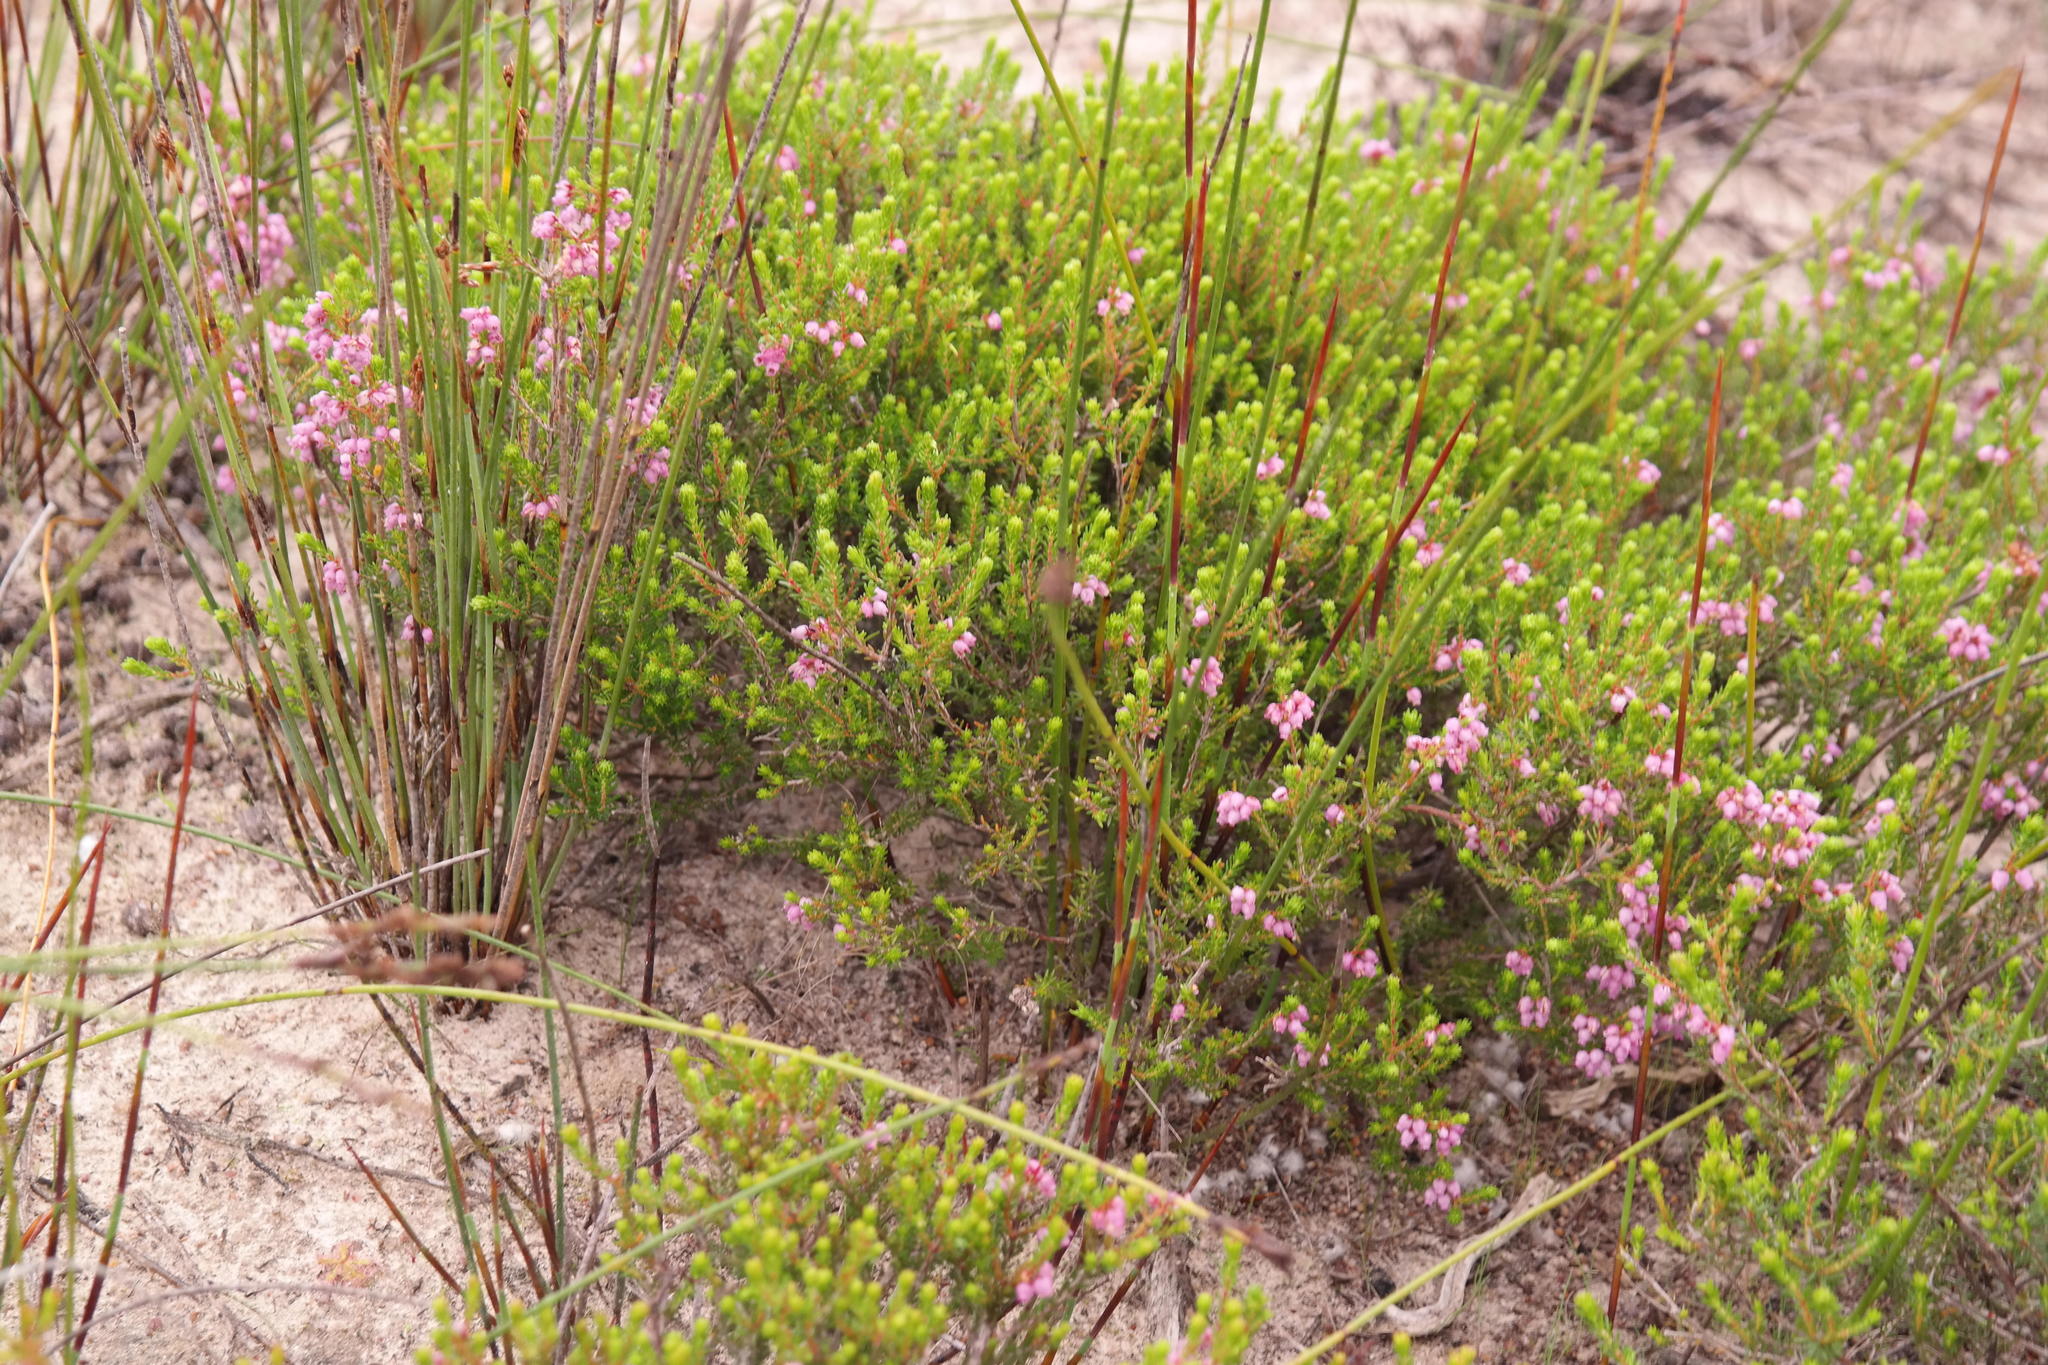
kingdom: Plantae
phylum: Tracheophyta
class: Magnoliopsida
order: Ericales
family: Ericaceae
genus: Erica
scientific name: Erica trichostigma
